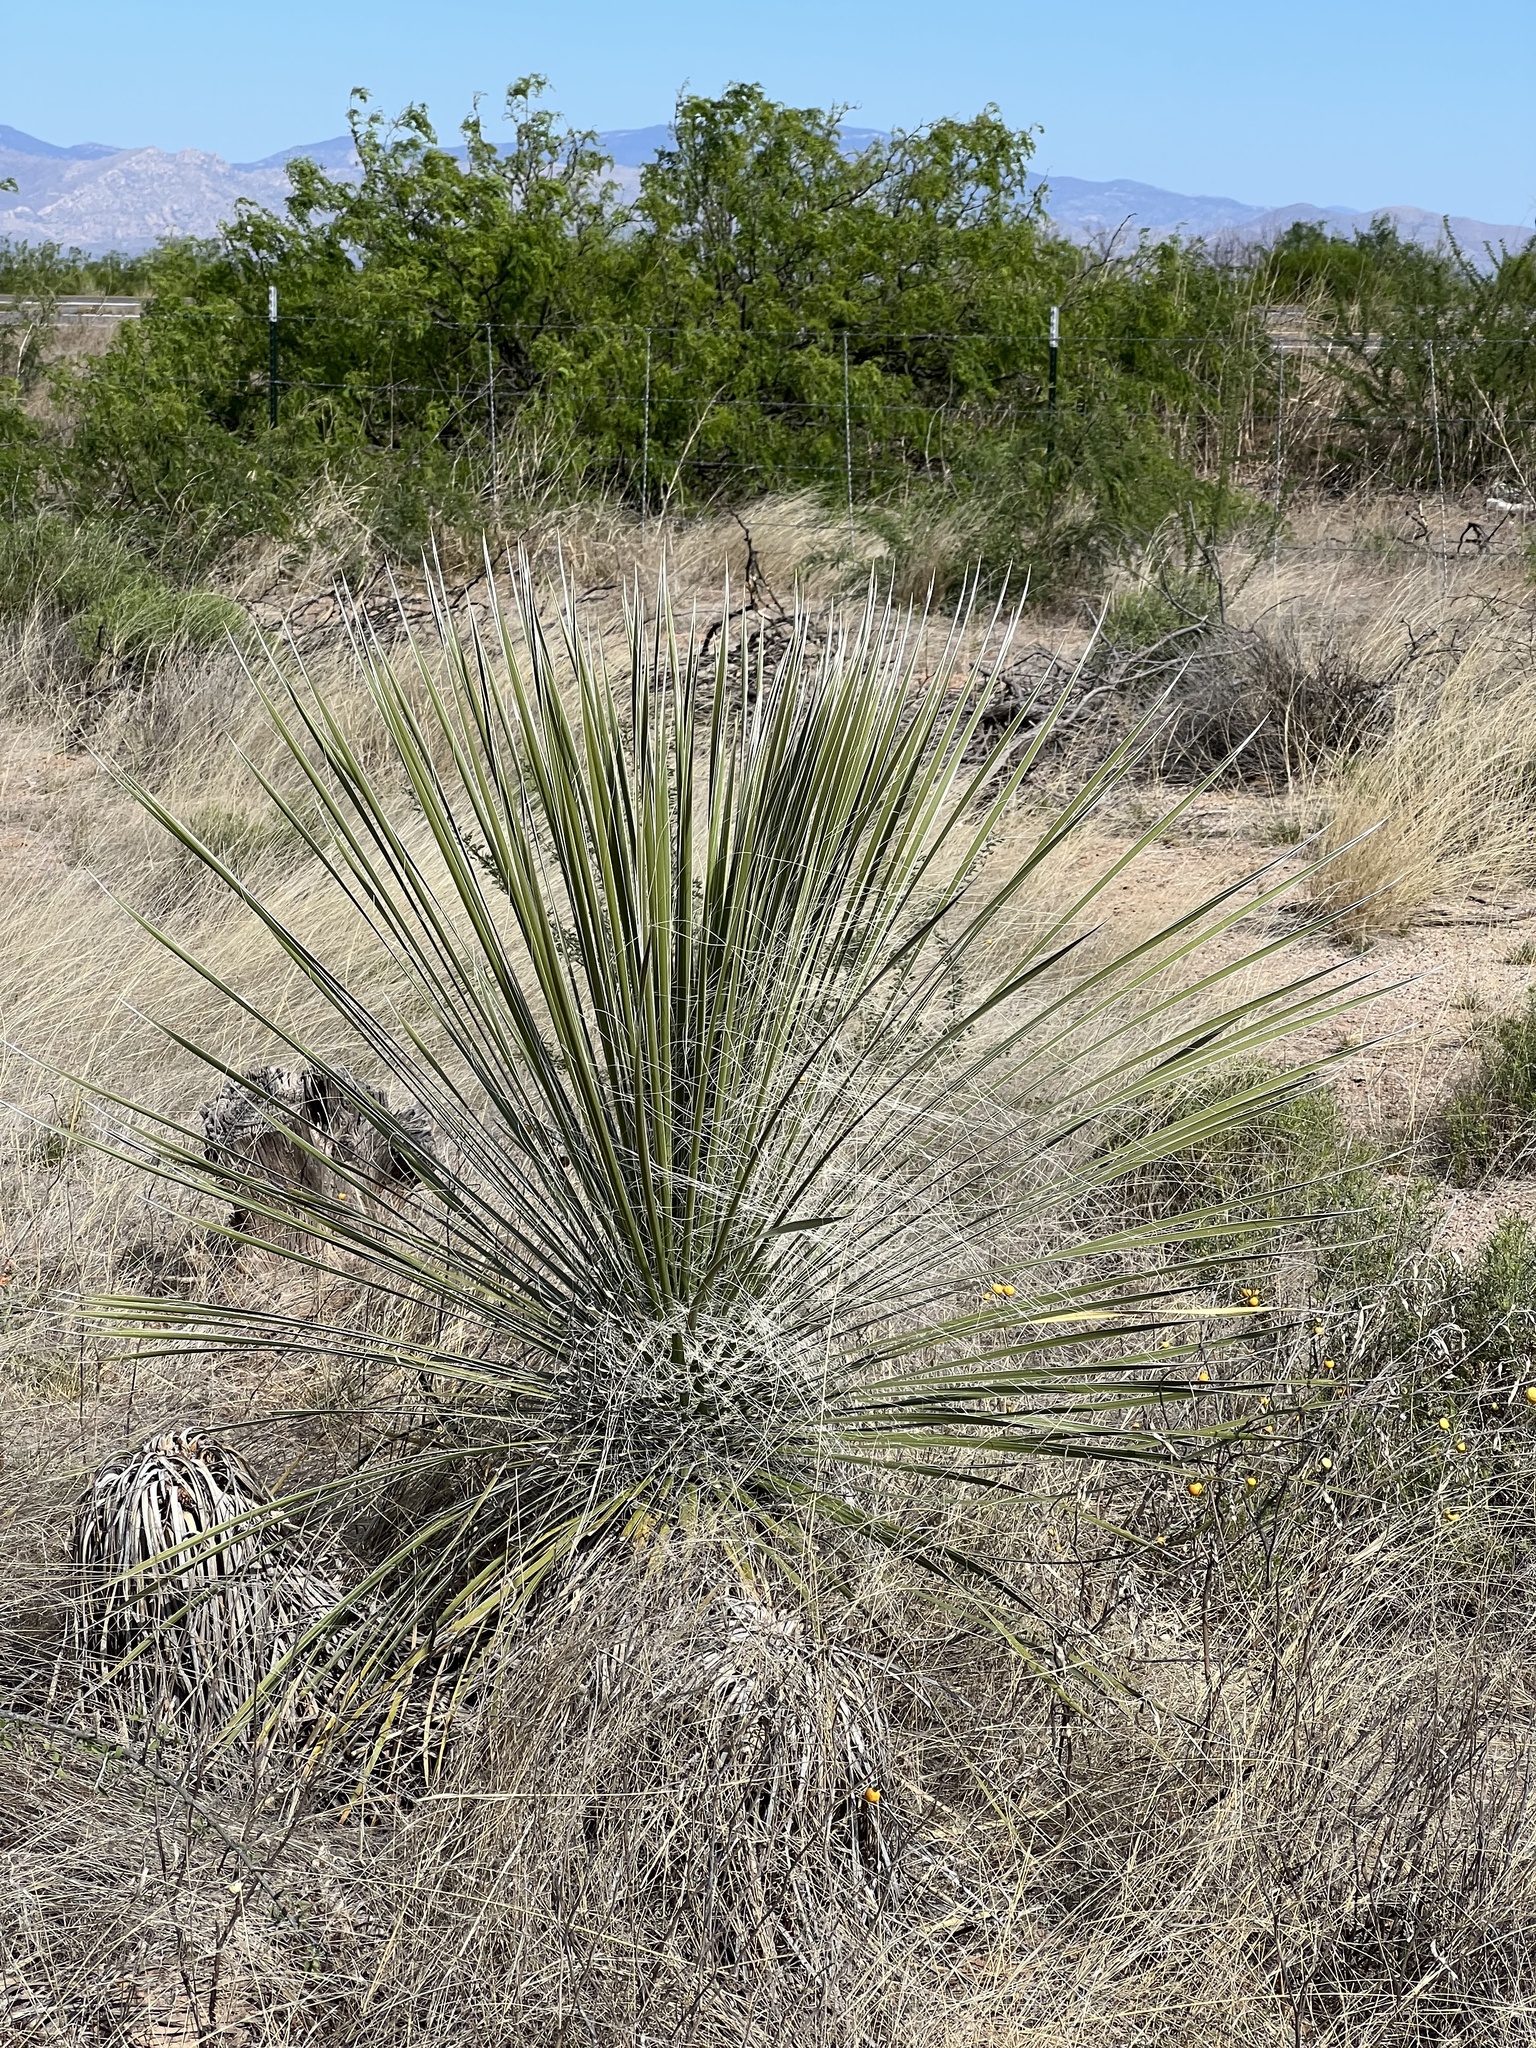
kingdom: Plantae
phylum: Tracheophyta
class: Liliopsida
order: Asparagales
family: Asparagaceae
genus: Yucca
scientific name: Yucca elata
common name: Palmella
